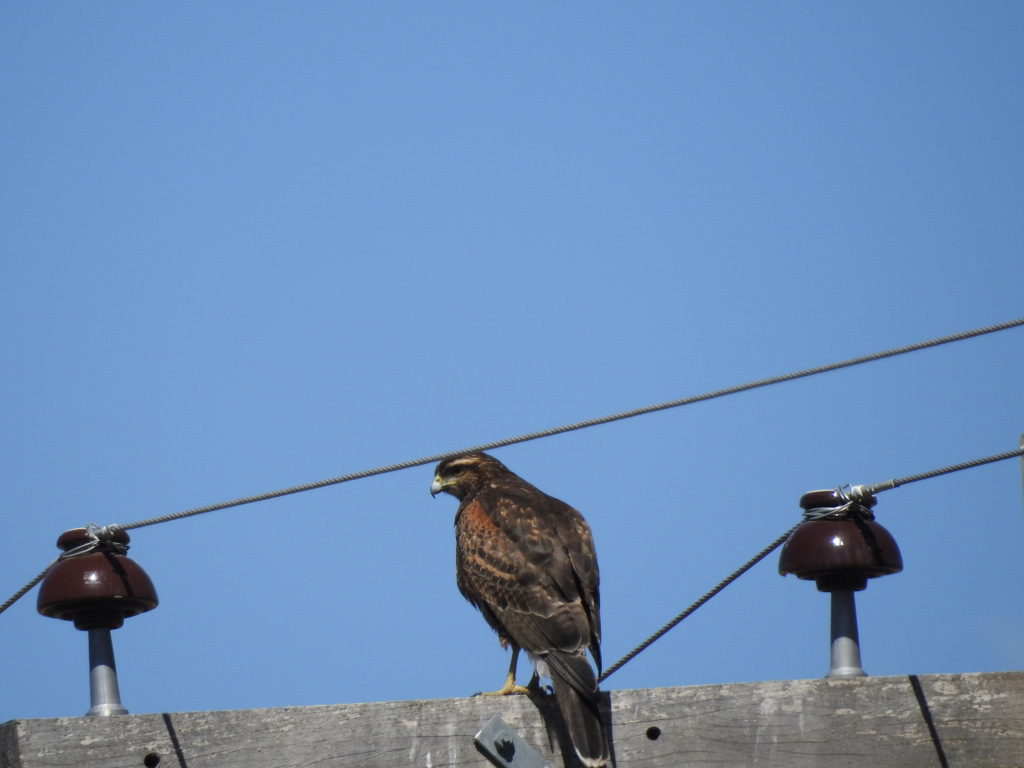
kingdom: Animalia
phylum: Chordata
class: Aves
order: Accipitriformes
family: Accipitridae
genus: Parabuteo
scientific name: Parabuteo unicinctus
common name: Harris's hawk
